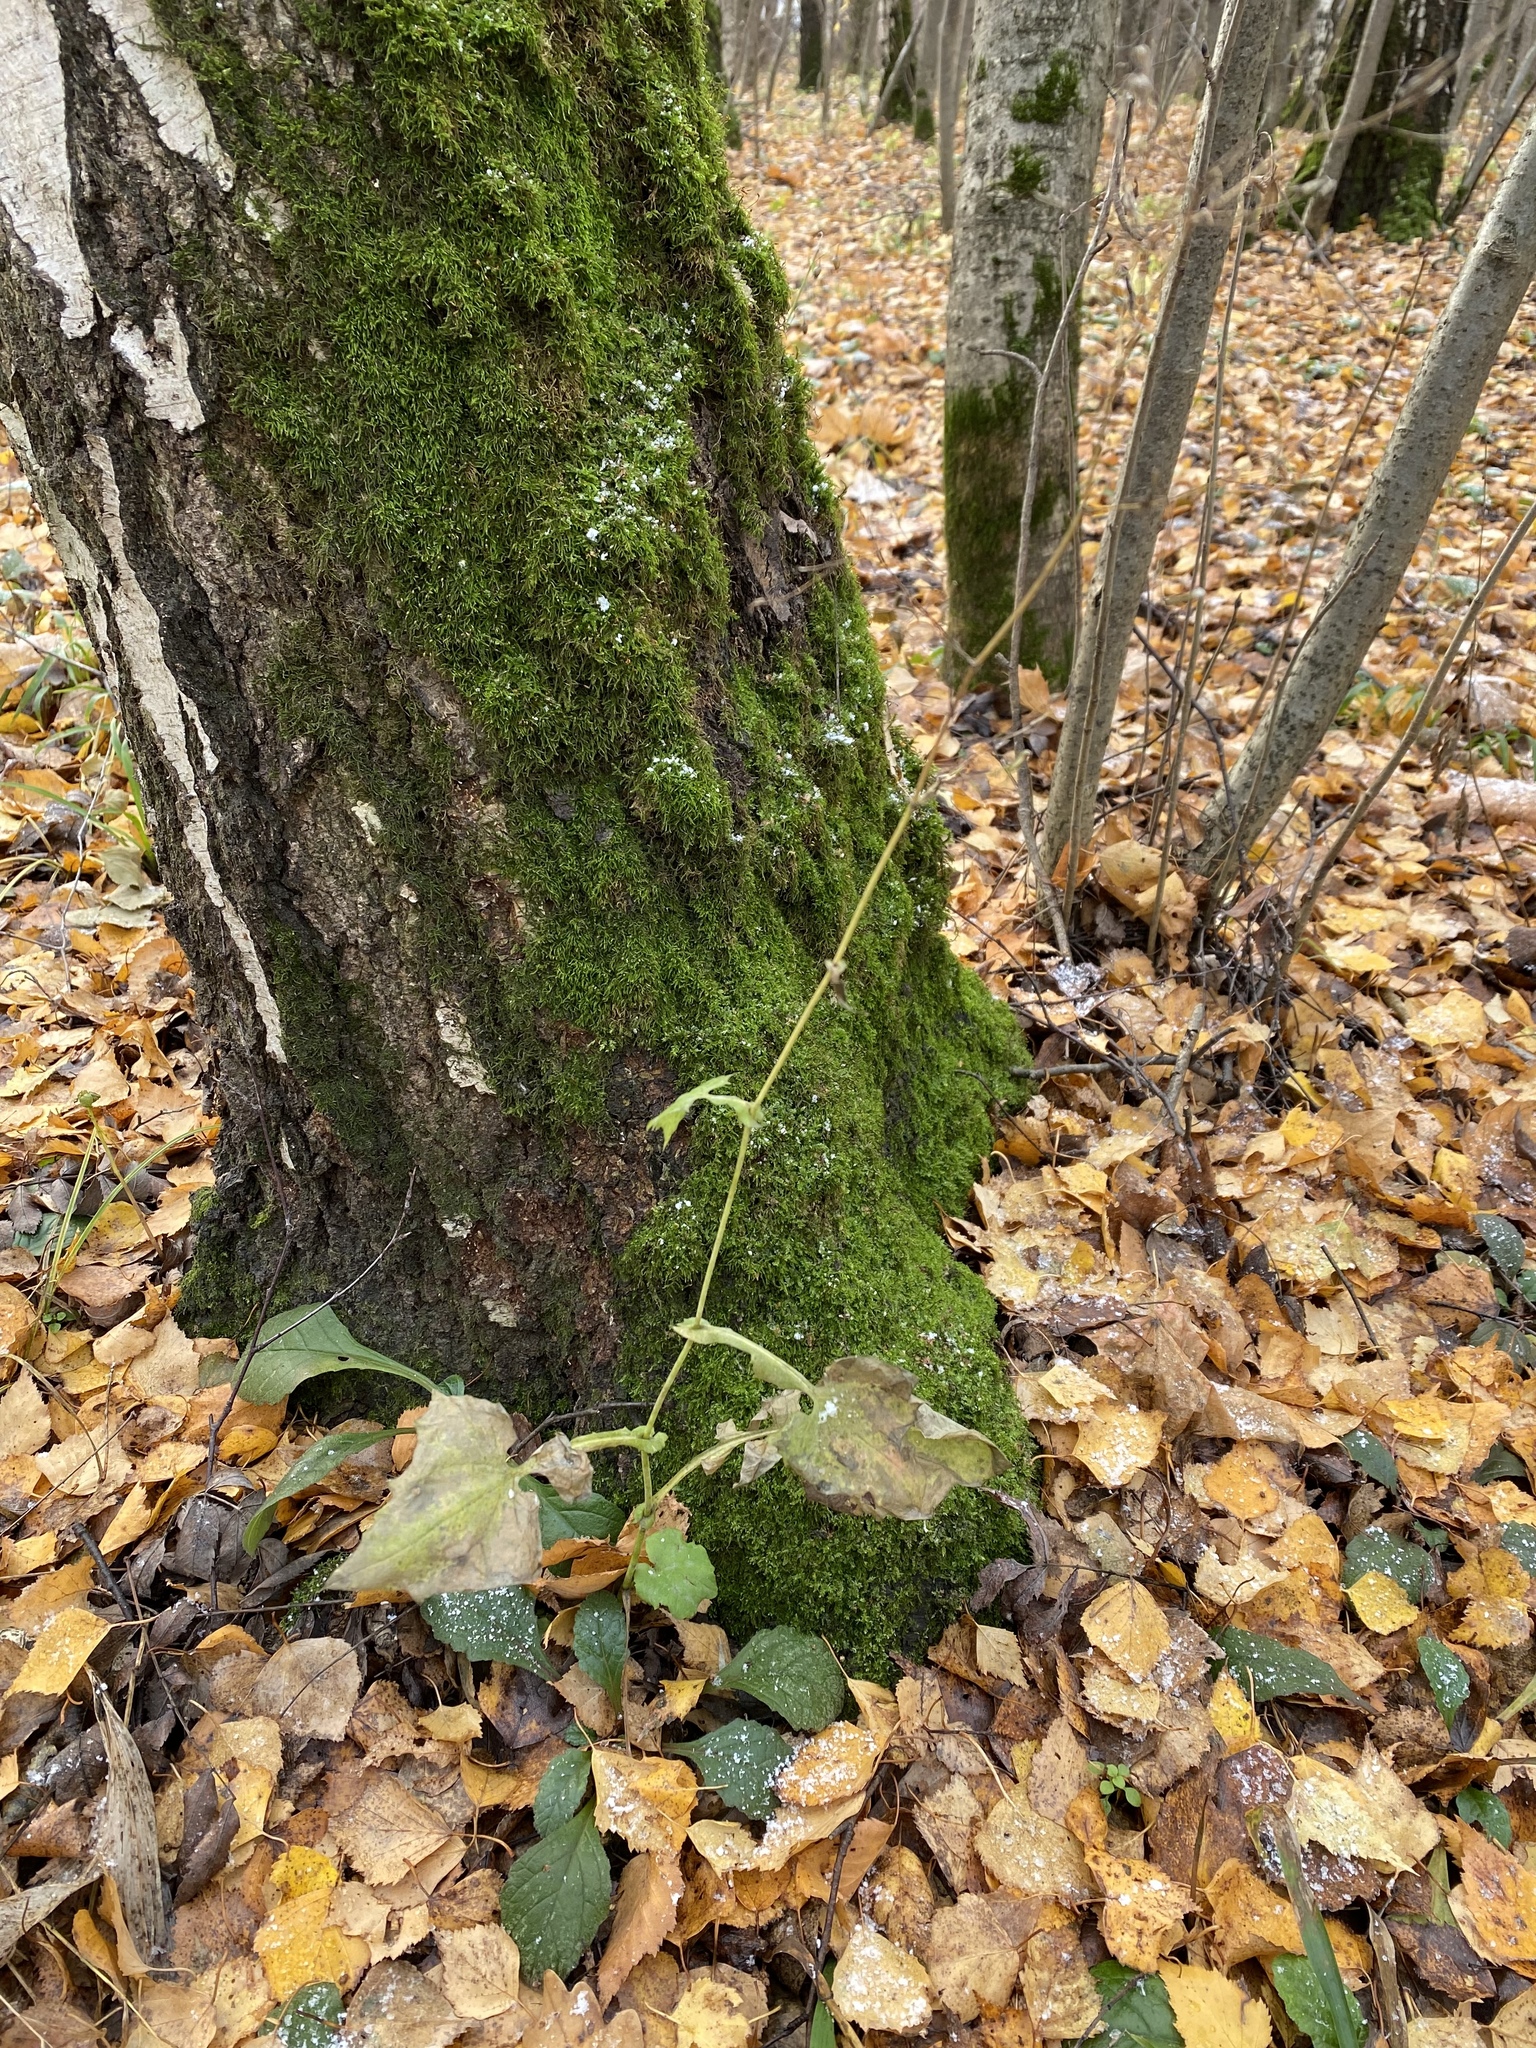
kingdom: Plantae
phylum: Tracheophyta
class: Magnoliopsida
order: Asterales
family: Asteraceae
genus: Mycelis
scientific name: Mycelis muralis
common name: Wall lettuce
